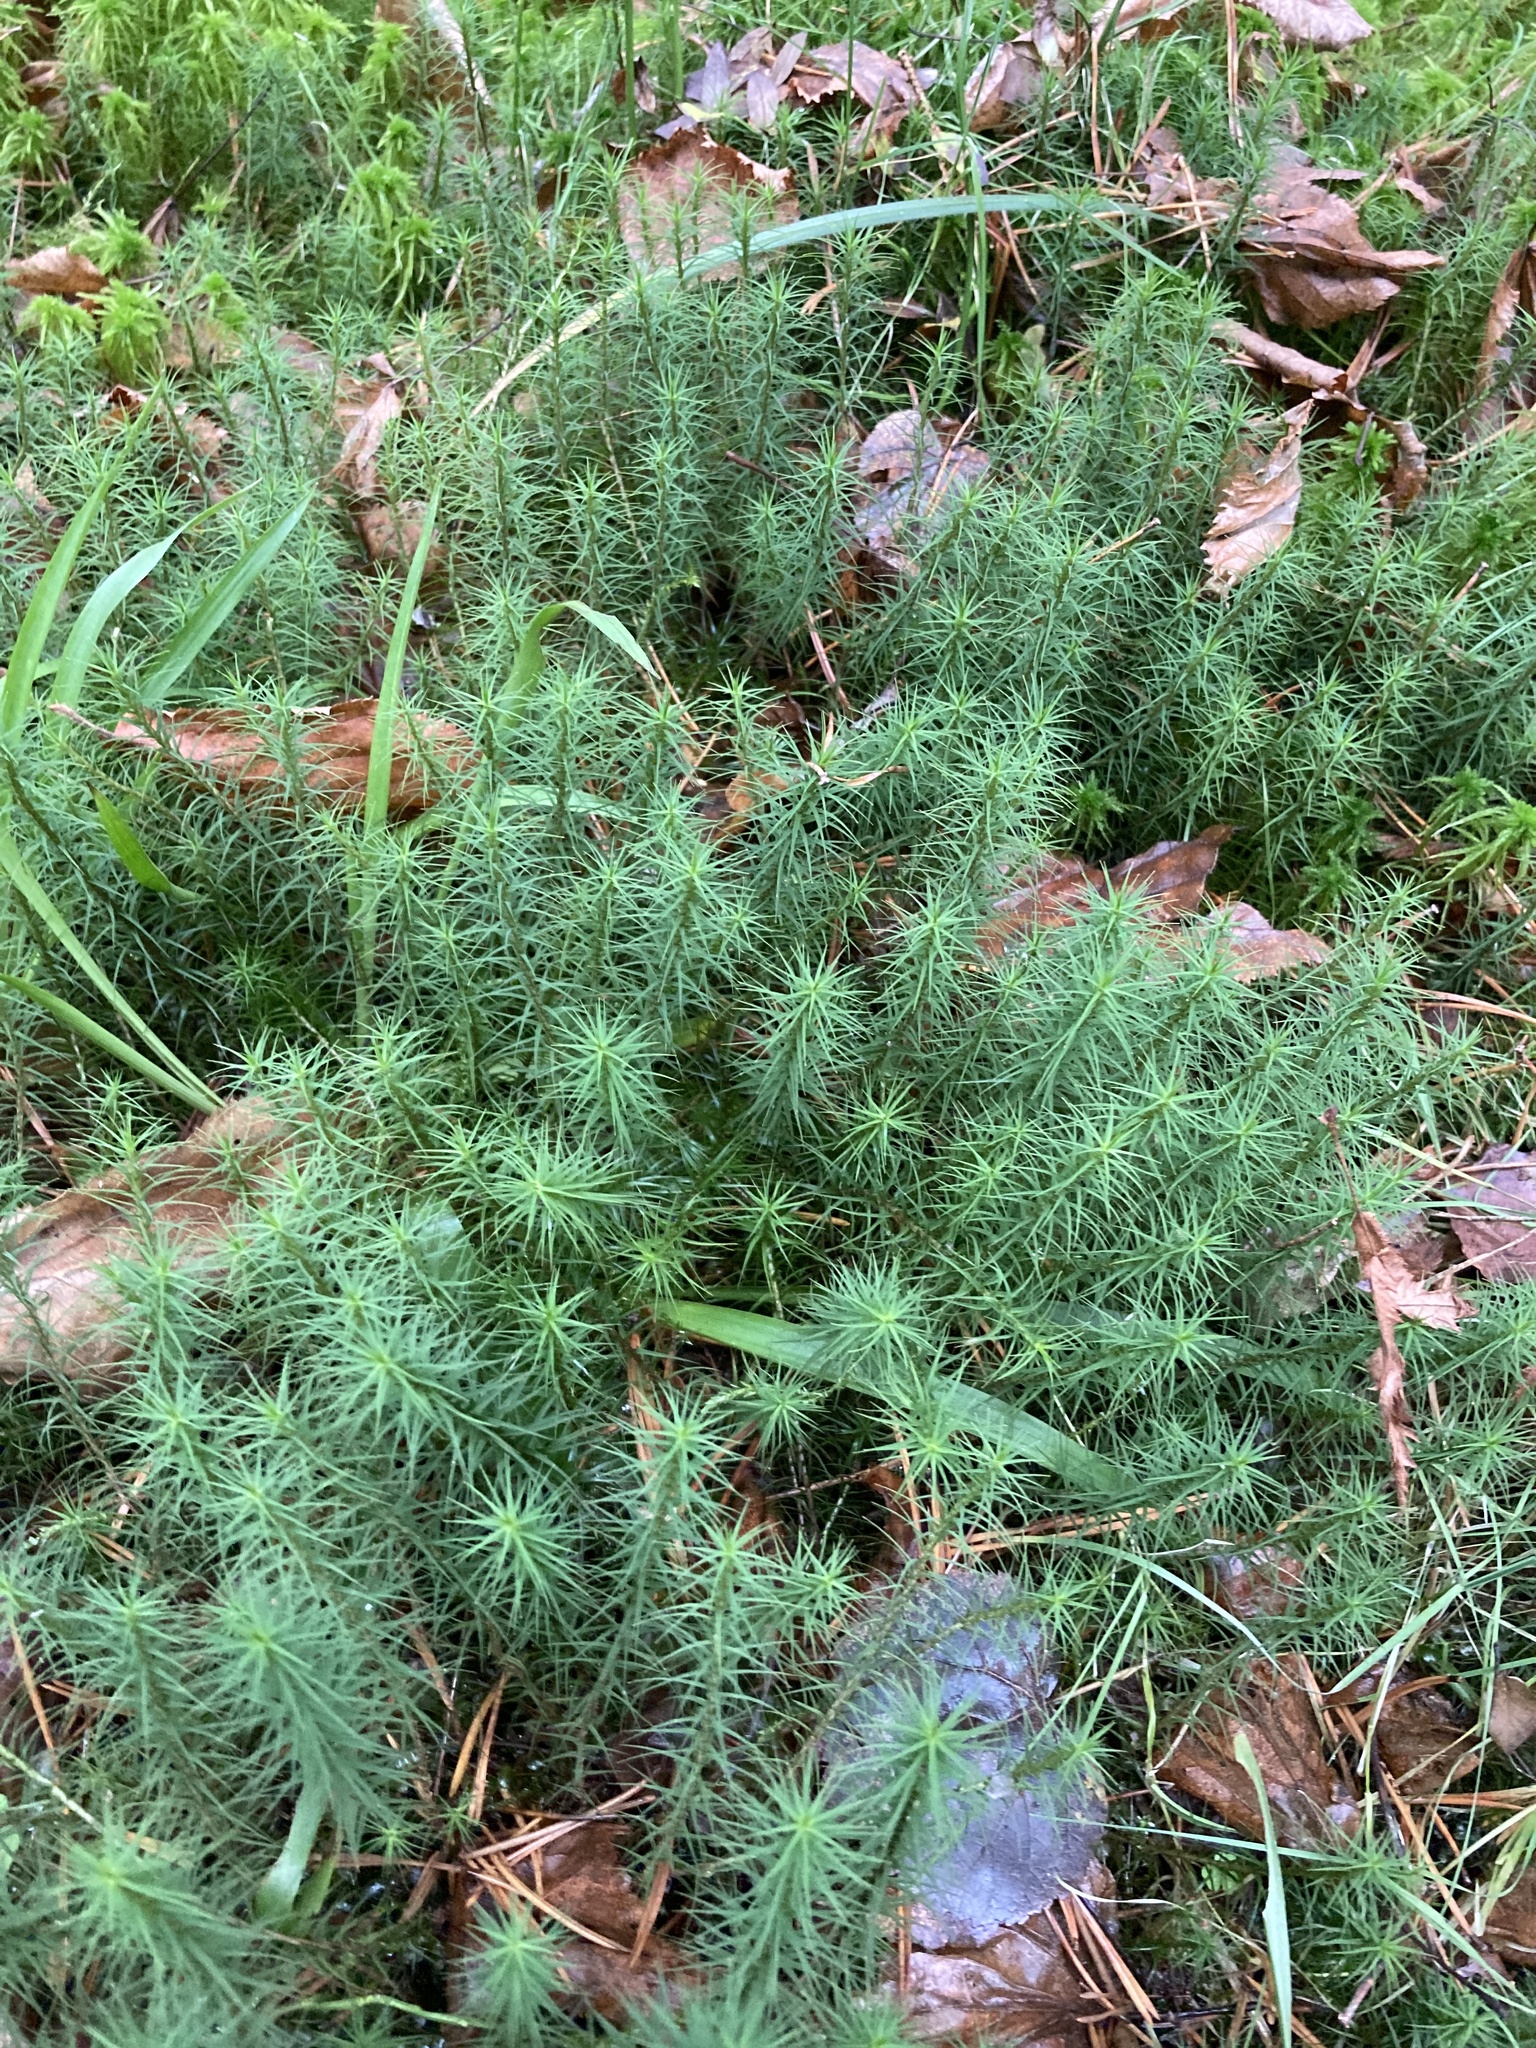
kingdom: Plantae
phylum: Bryophyta
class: Polytrichopsida
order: Polytrichales
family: Polytrichaceae
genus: Polytrichum
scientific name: Polytrichum commune
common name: Common haircap
